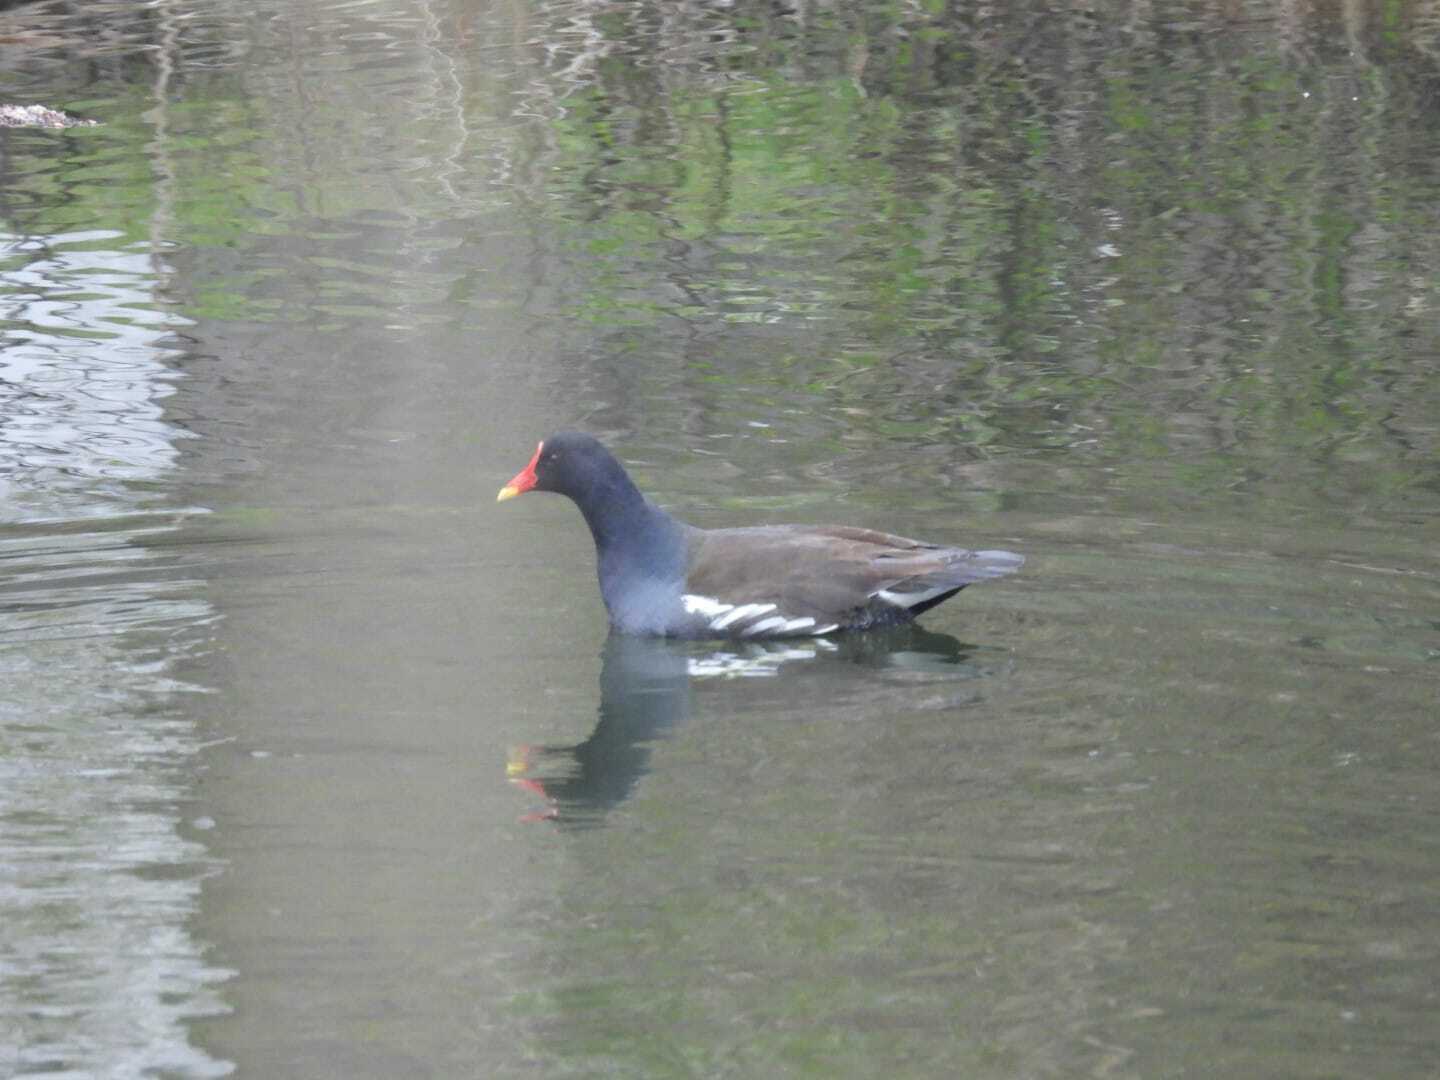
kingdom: Animalia
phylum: Chordata
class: Aves
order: Gruiformes
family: Rallidae
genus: Gallinula
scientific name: Gallinula chloropus
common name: Common moorhen
